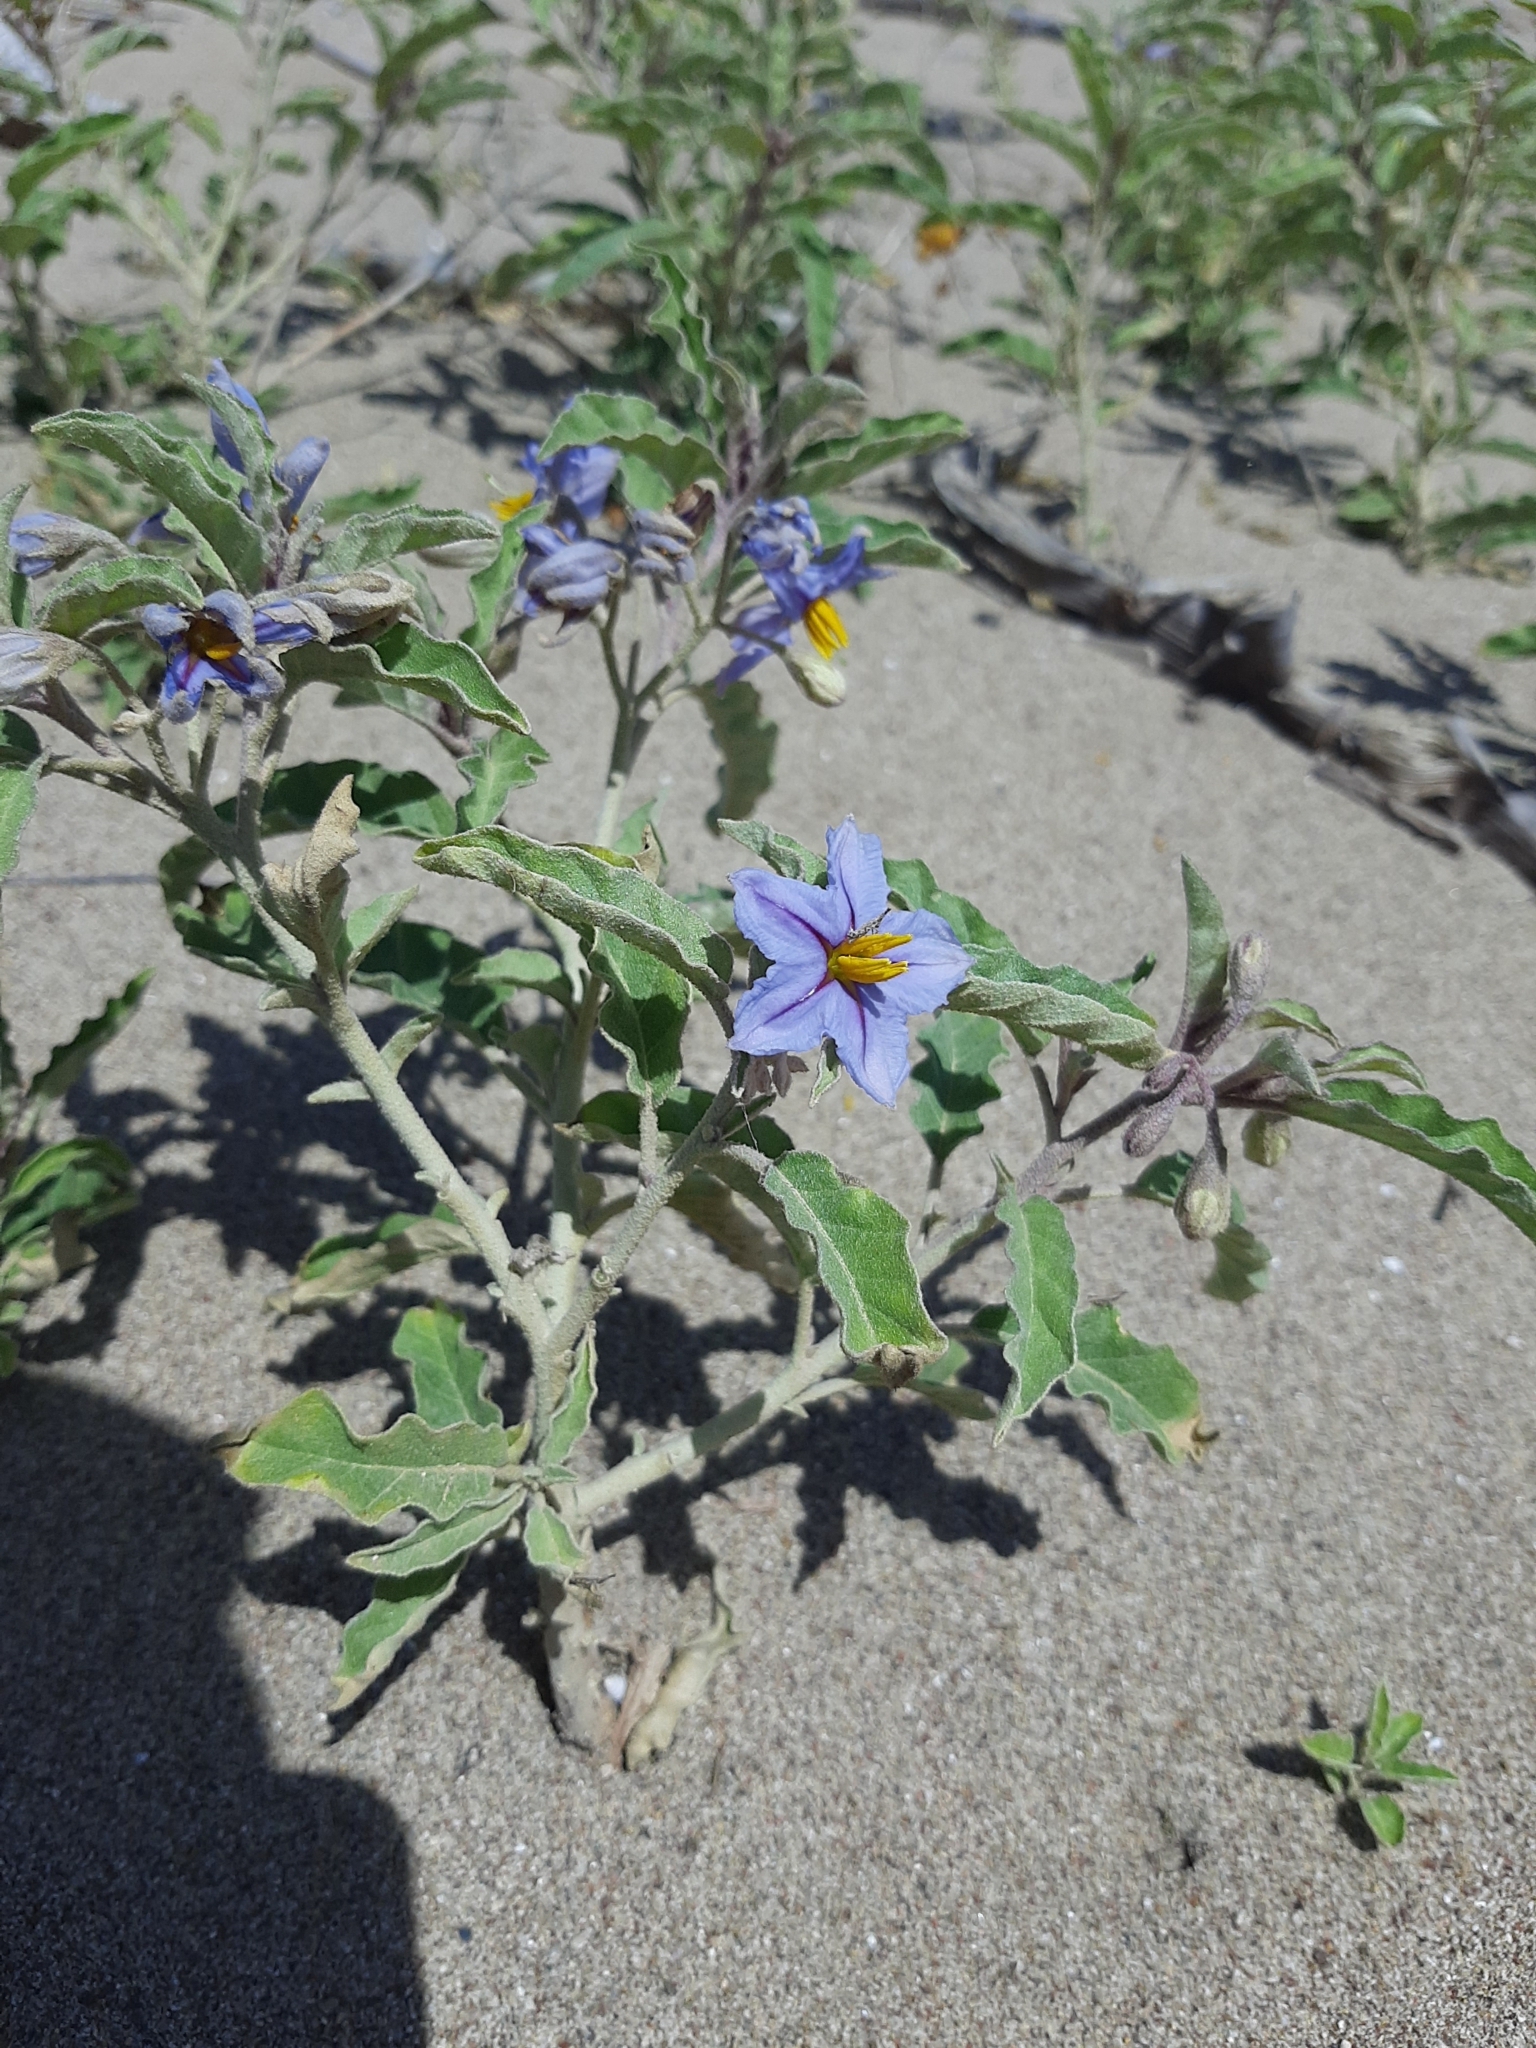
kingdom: Plantae
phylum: Tracheophyta
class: Magnoliopsida
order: Solanales
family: Solanaceae
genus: Solanum
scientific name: Solanum elaeagnifolium
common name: Silverleaf nightshade
